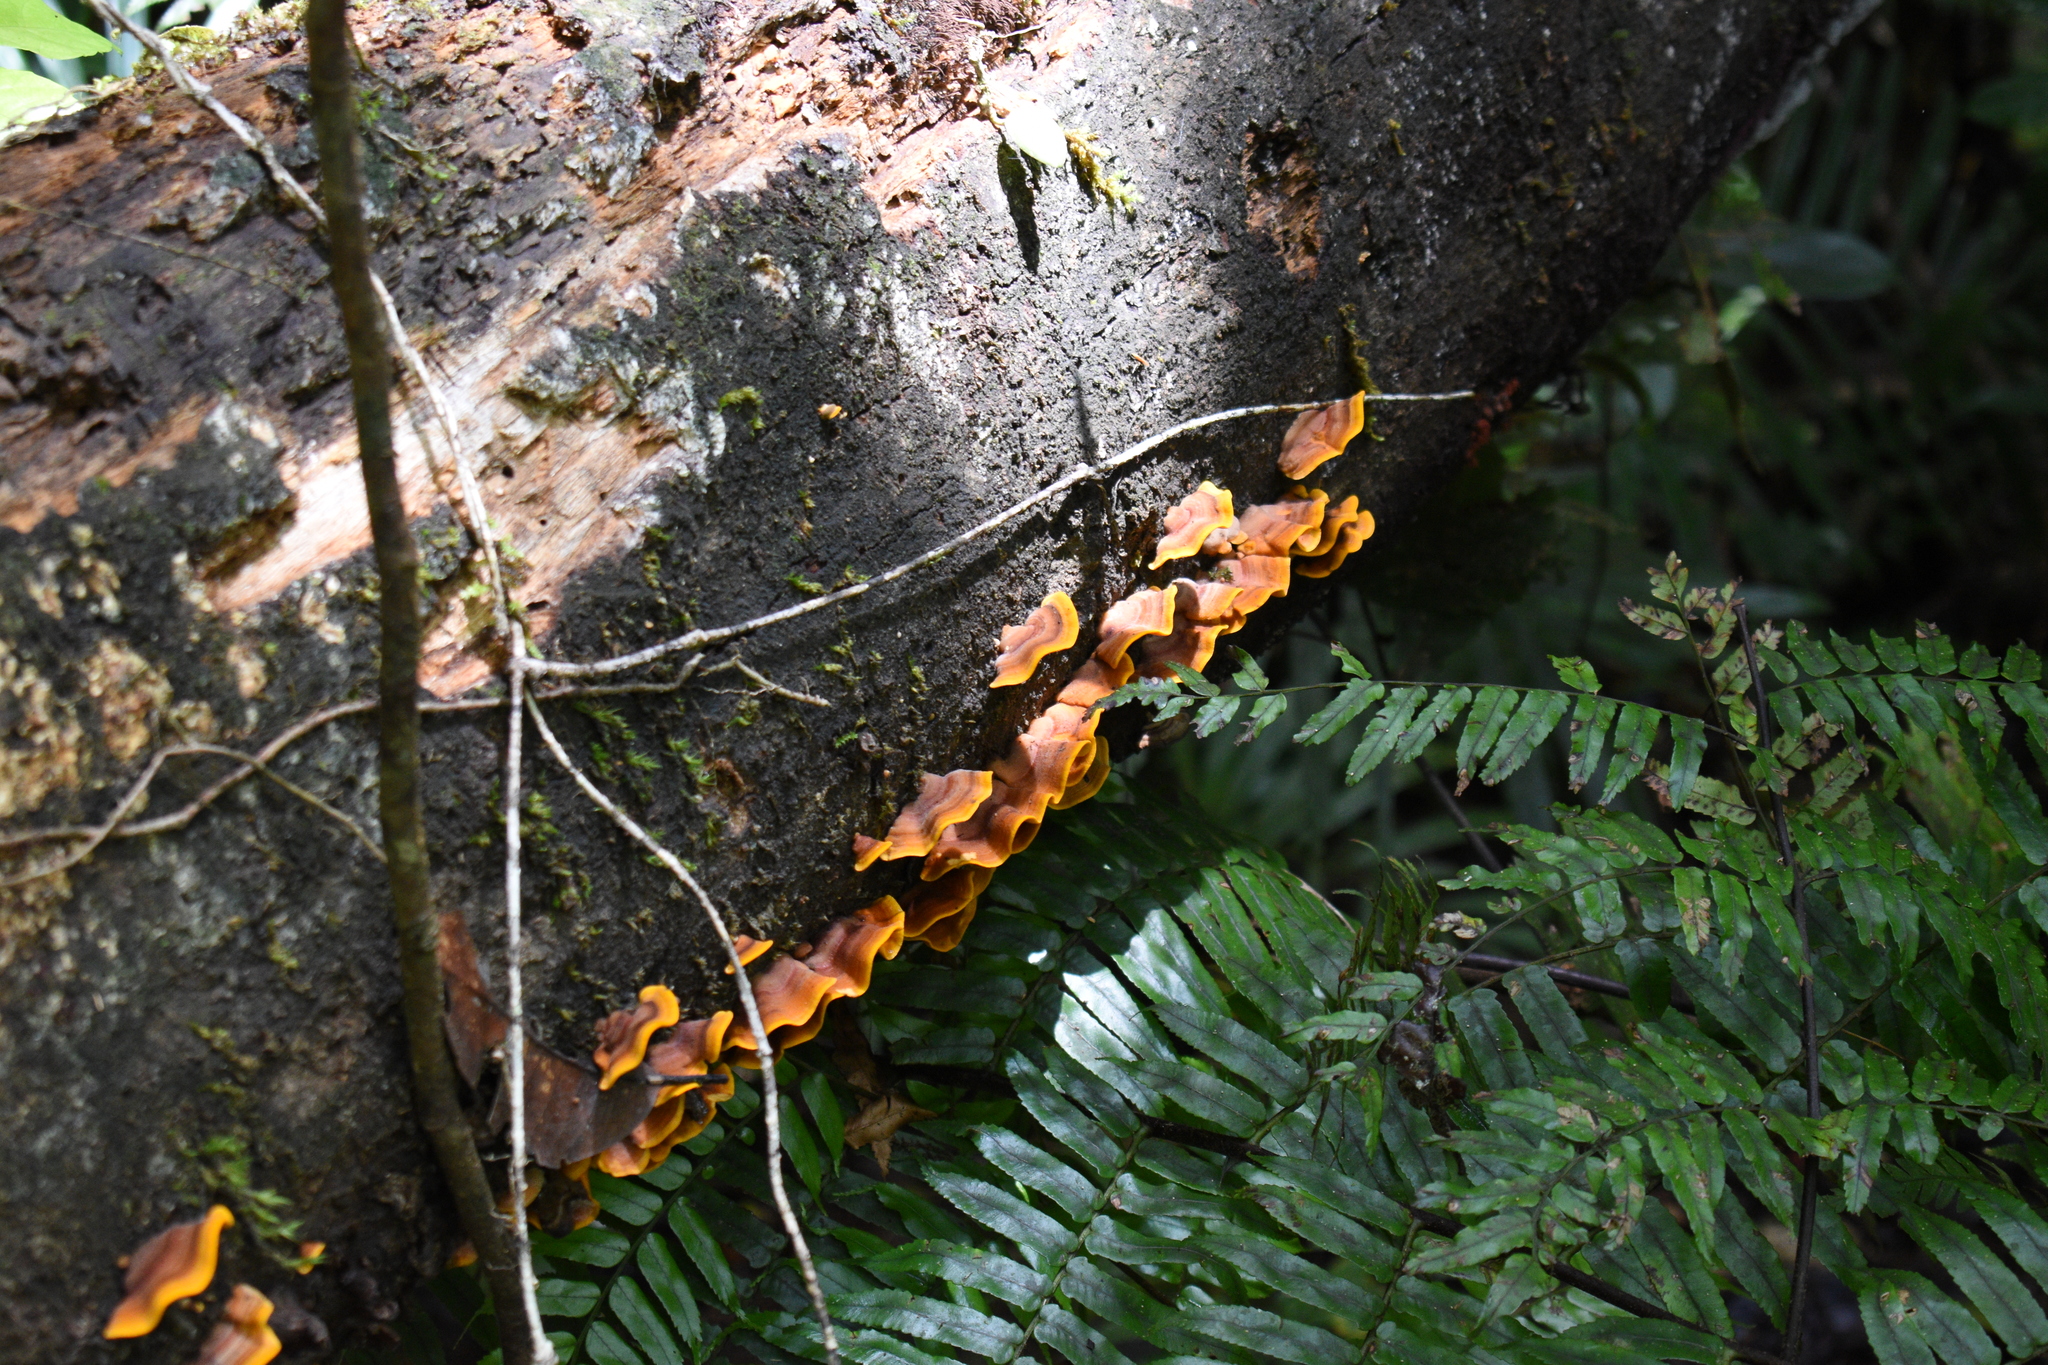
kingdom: Fungi
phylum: Basidiomycota
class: Agaricomycetes
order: Russulales
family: Stereaceae
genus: Stereum
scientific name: Stereum versicolor
